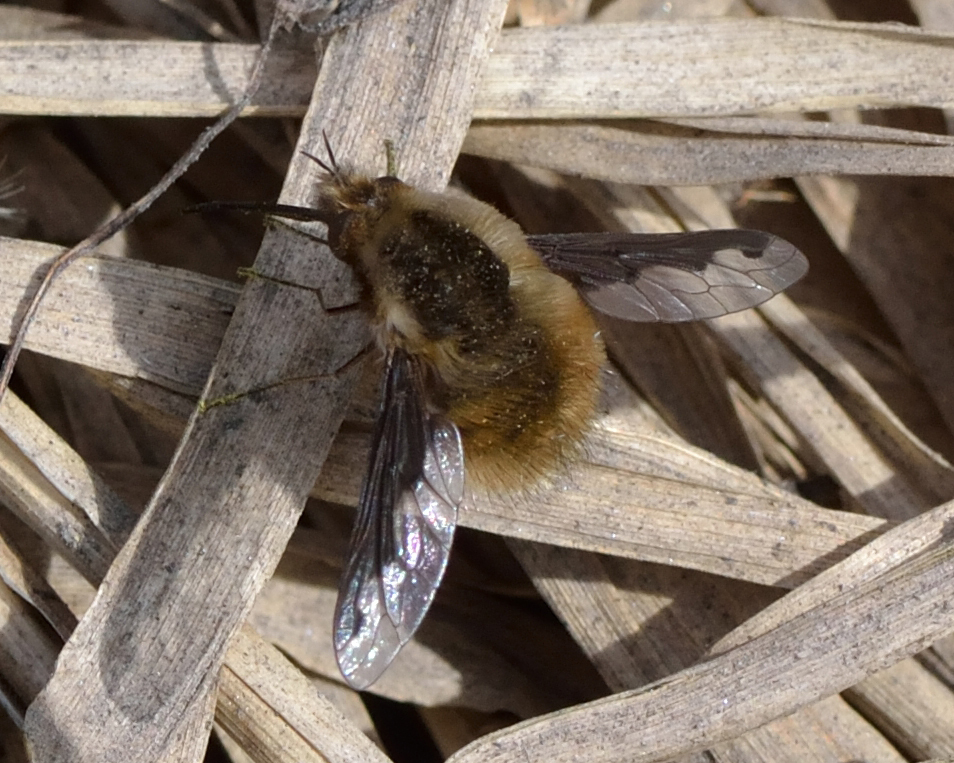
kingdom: Animalia
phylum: Arthropoda
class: Insecta
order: Diptera
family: Bombyliidae
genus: Bombylius
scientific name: Bombylius major
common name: Bee fly
